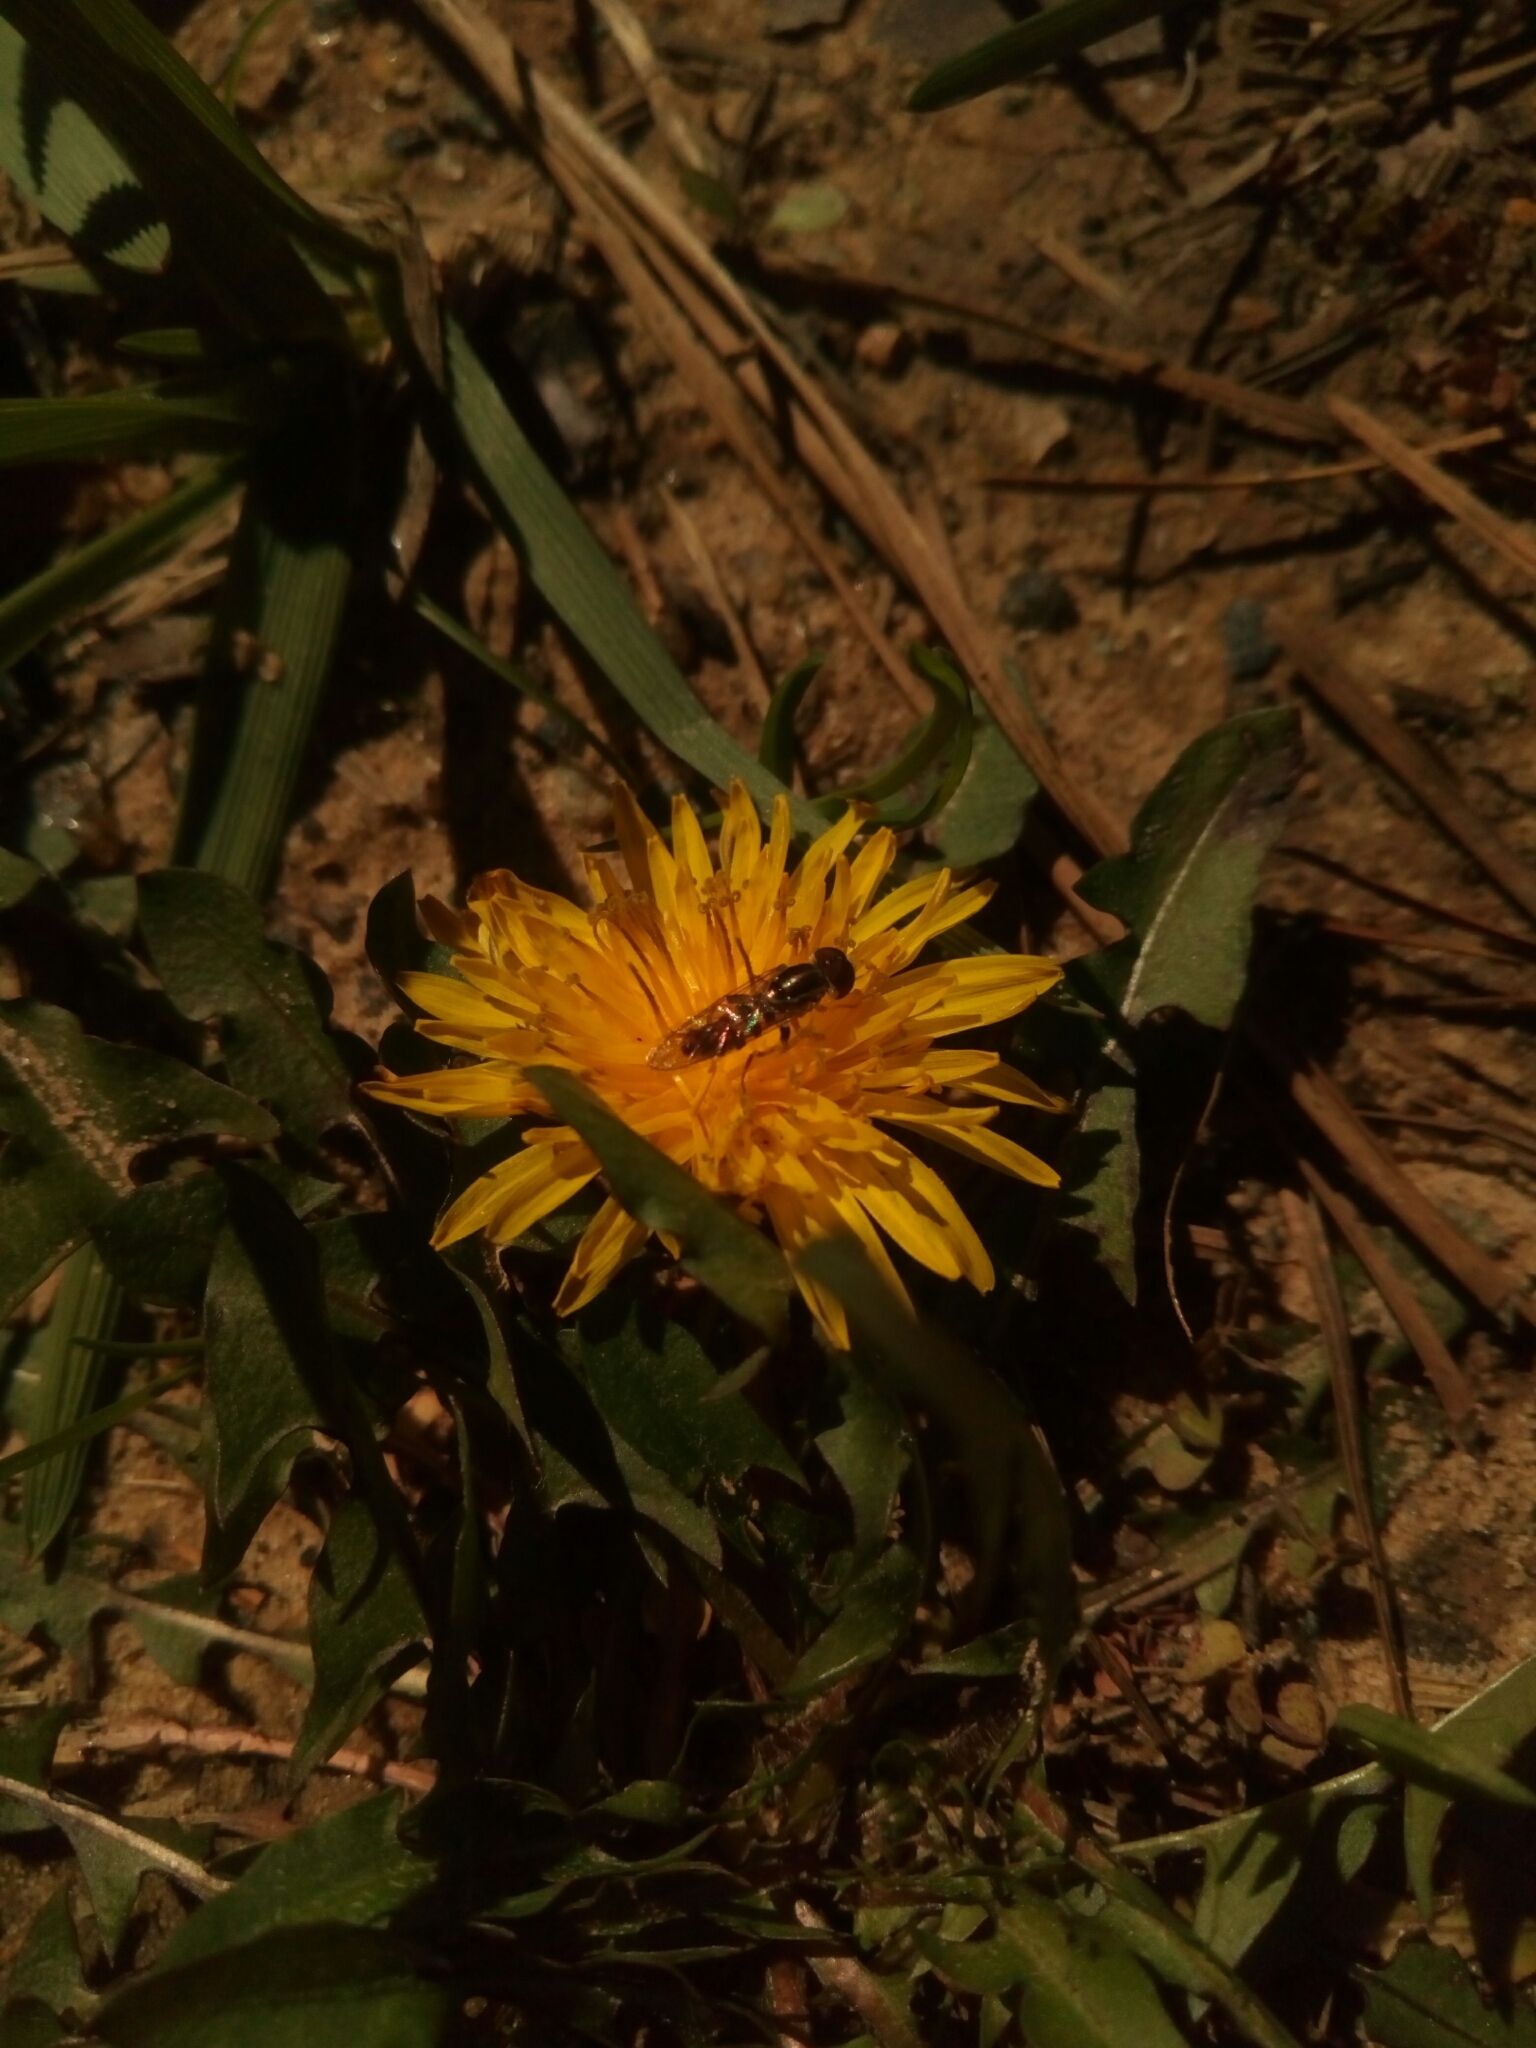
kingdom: Animalia
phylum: Arthropoda
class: Insecta
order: Diptera
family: Syrphidae
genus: Toxomerus
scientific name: Toxomerus geminatus
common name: Eastern calligrapher
